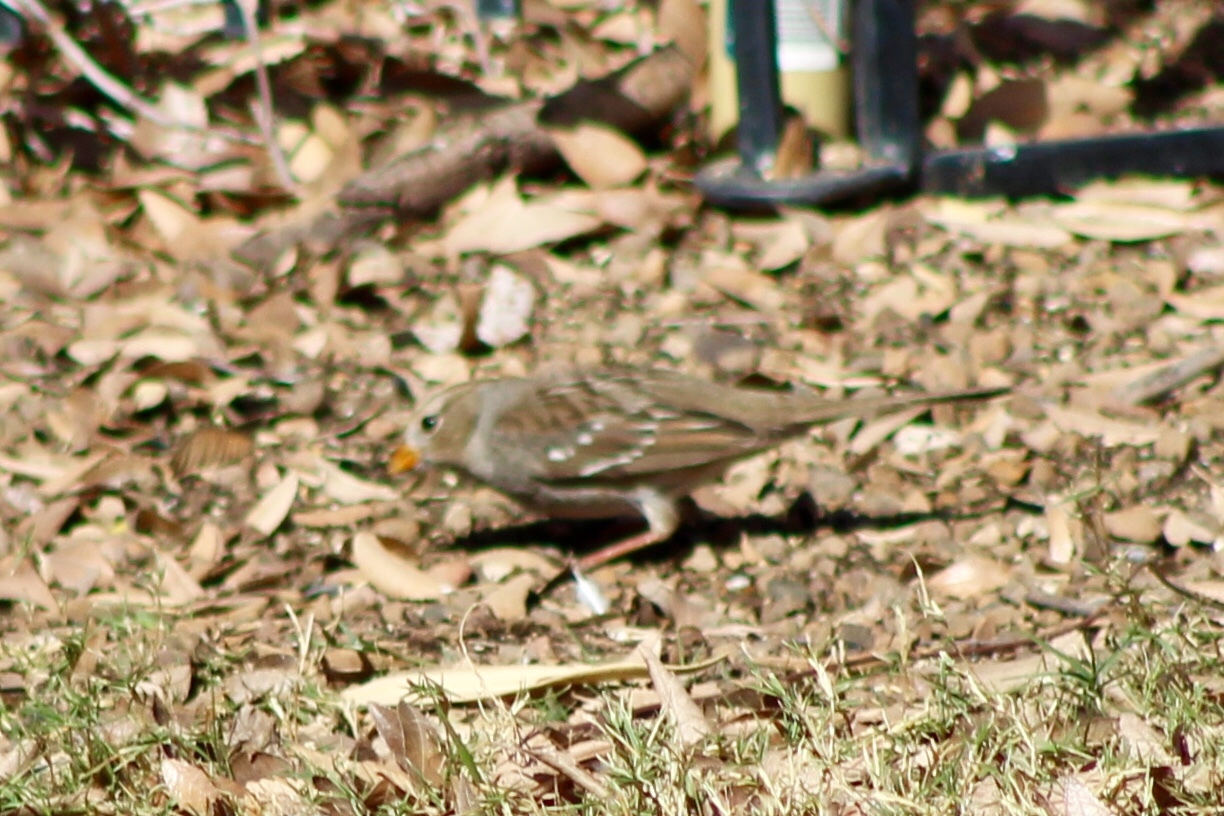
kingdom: Animalia
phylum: Chordata
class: Aves
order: Passeriformes
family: Passerellidae
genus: Zonotrichia
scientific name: Zonotrichia leucophrys
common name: White-crowned sparrow
